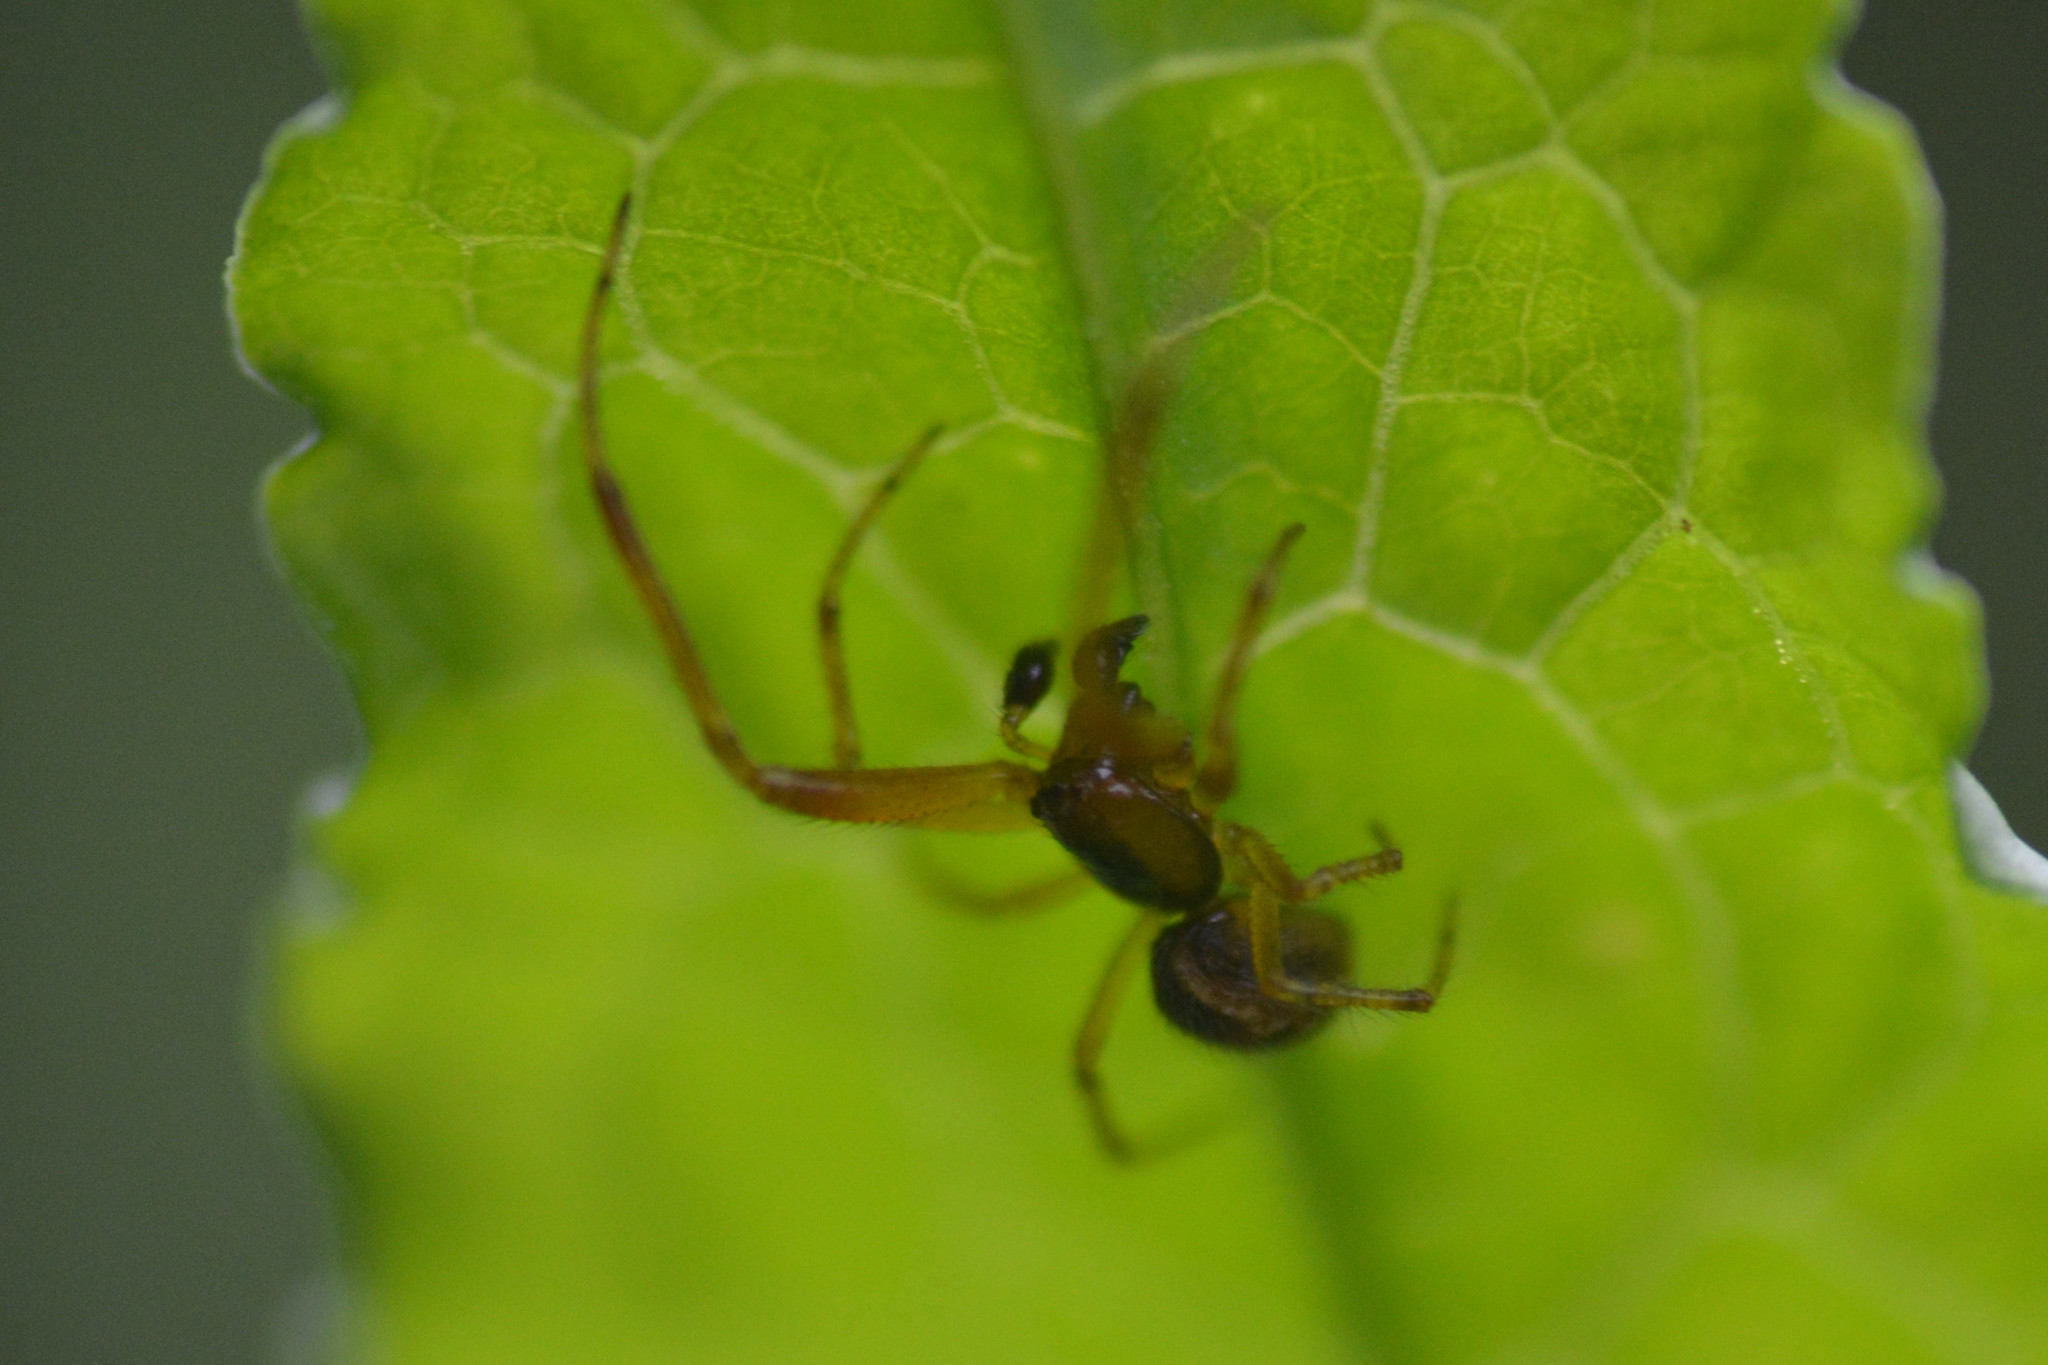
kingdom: Animalia
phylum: Arthropoda
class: Arachnida
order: Araneae
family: Theridiidae
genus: Anelosimus
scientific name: Anelosimus vittatus
